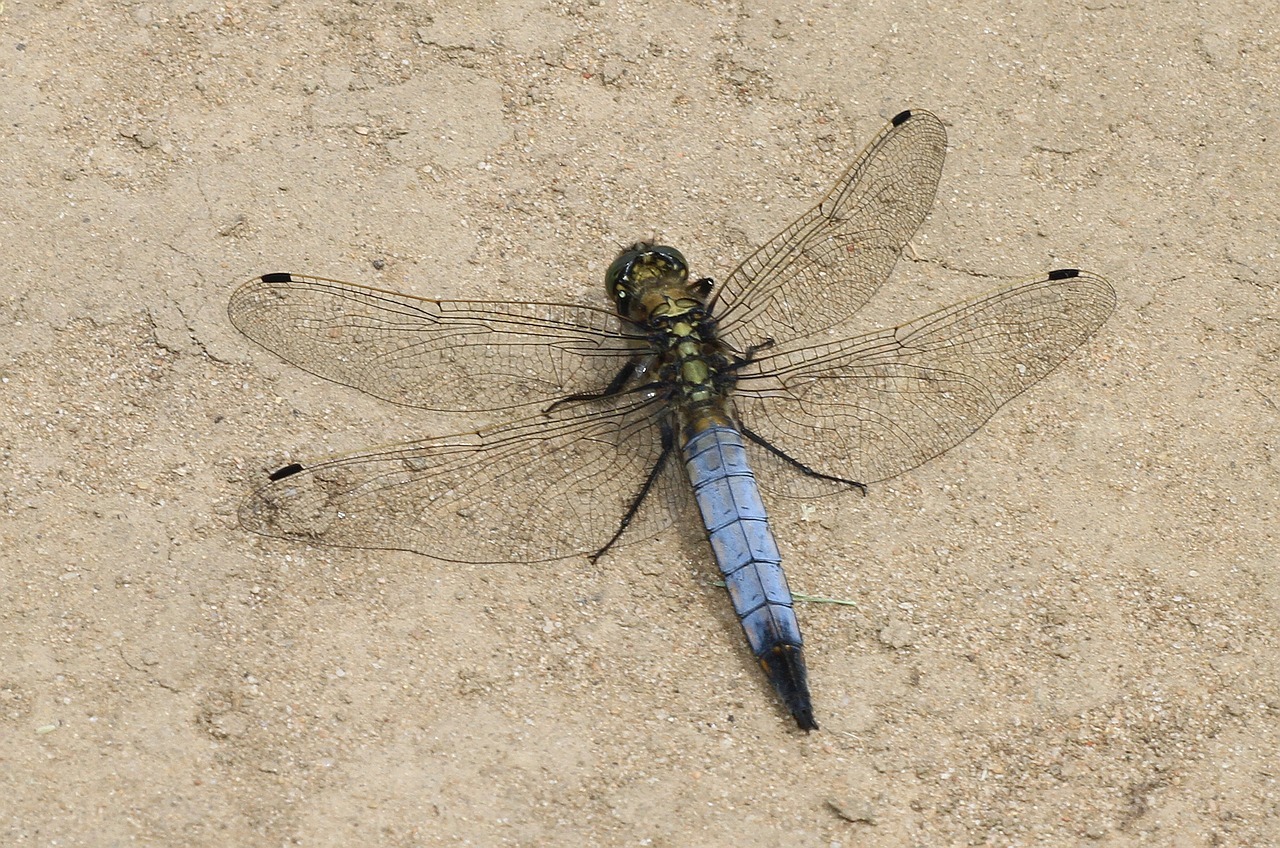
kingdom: Animalia
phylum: Arthropoda
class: Insecta
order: Odonata
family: Libellulidae
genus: Orthetrum
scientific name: Orthetrum cancellatum
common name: Black-tailed skimmer
